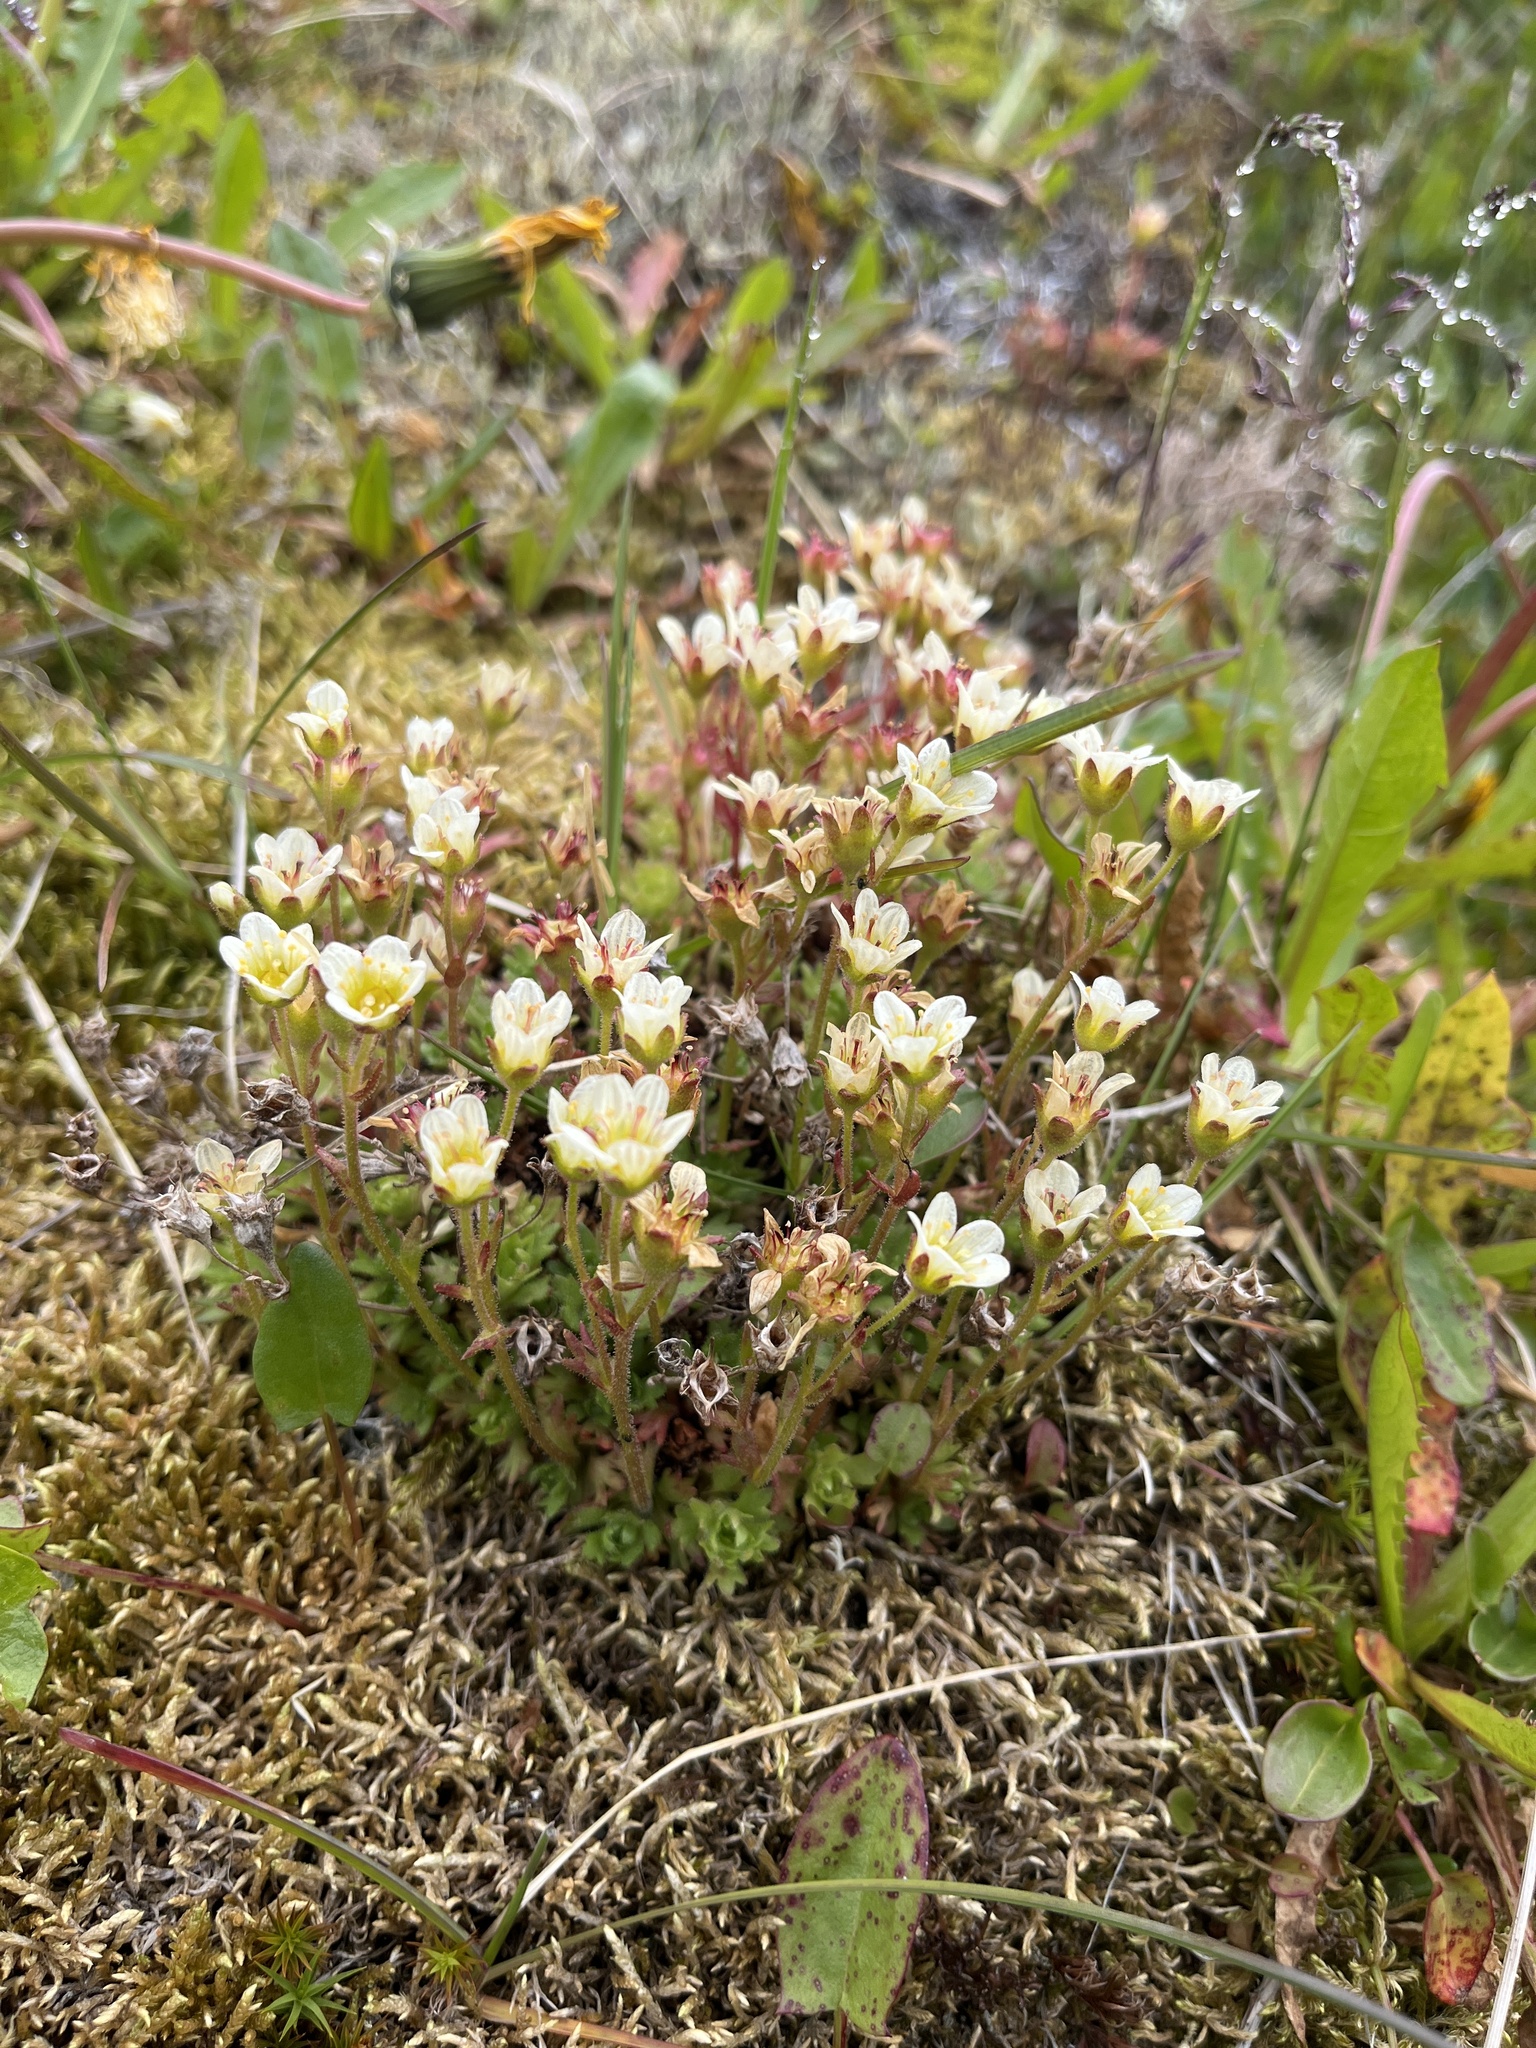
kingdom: Plantae
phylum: Tracheophyta
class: Magnoliopsida
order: Saxifragales
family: Saxifragaceae
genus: Saxifraga
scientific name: Saxifraga cespitosa
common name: Tufted saxifrage
